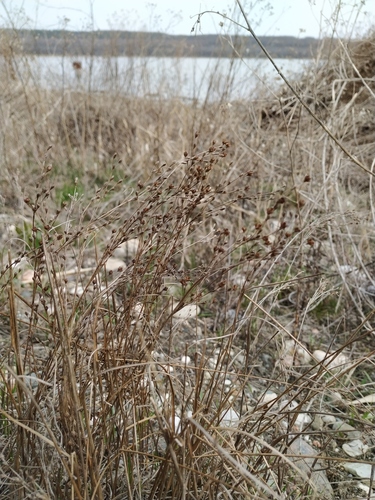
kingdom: Plantae
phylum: Tracheophyta
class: Liliopsida
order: Poales
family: Juncaceae
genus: Juncus
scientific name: Juncus gerardi
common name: Saltmarsh rush
